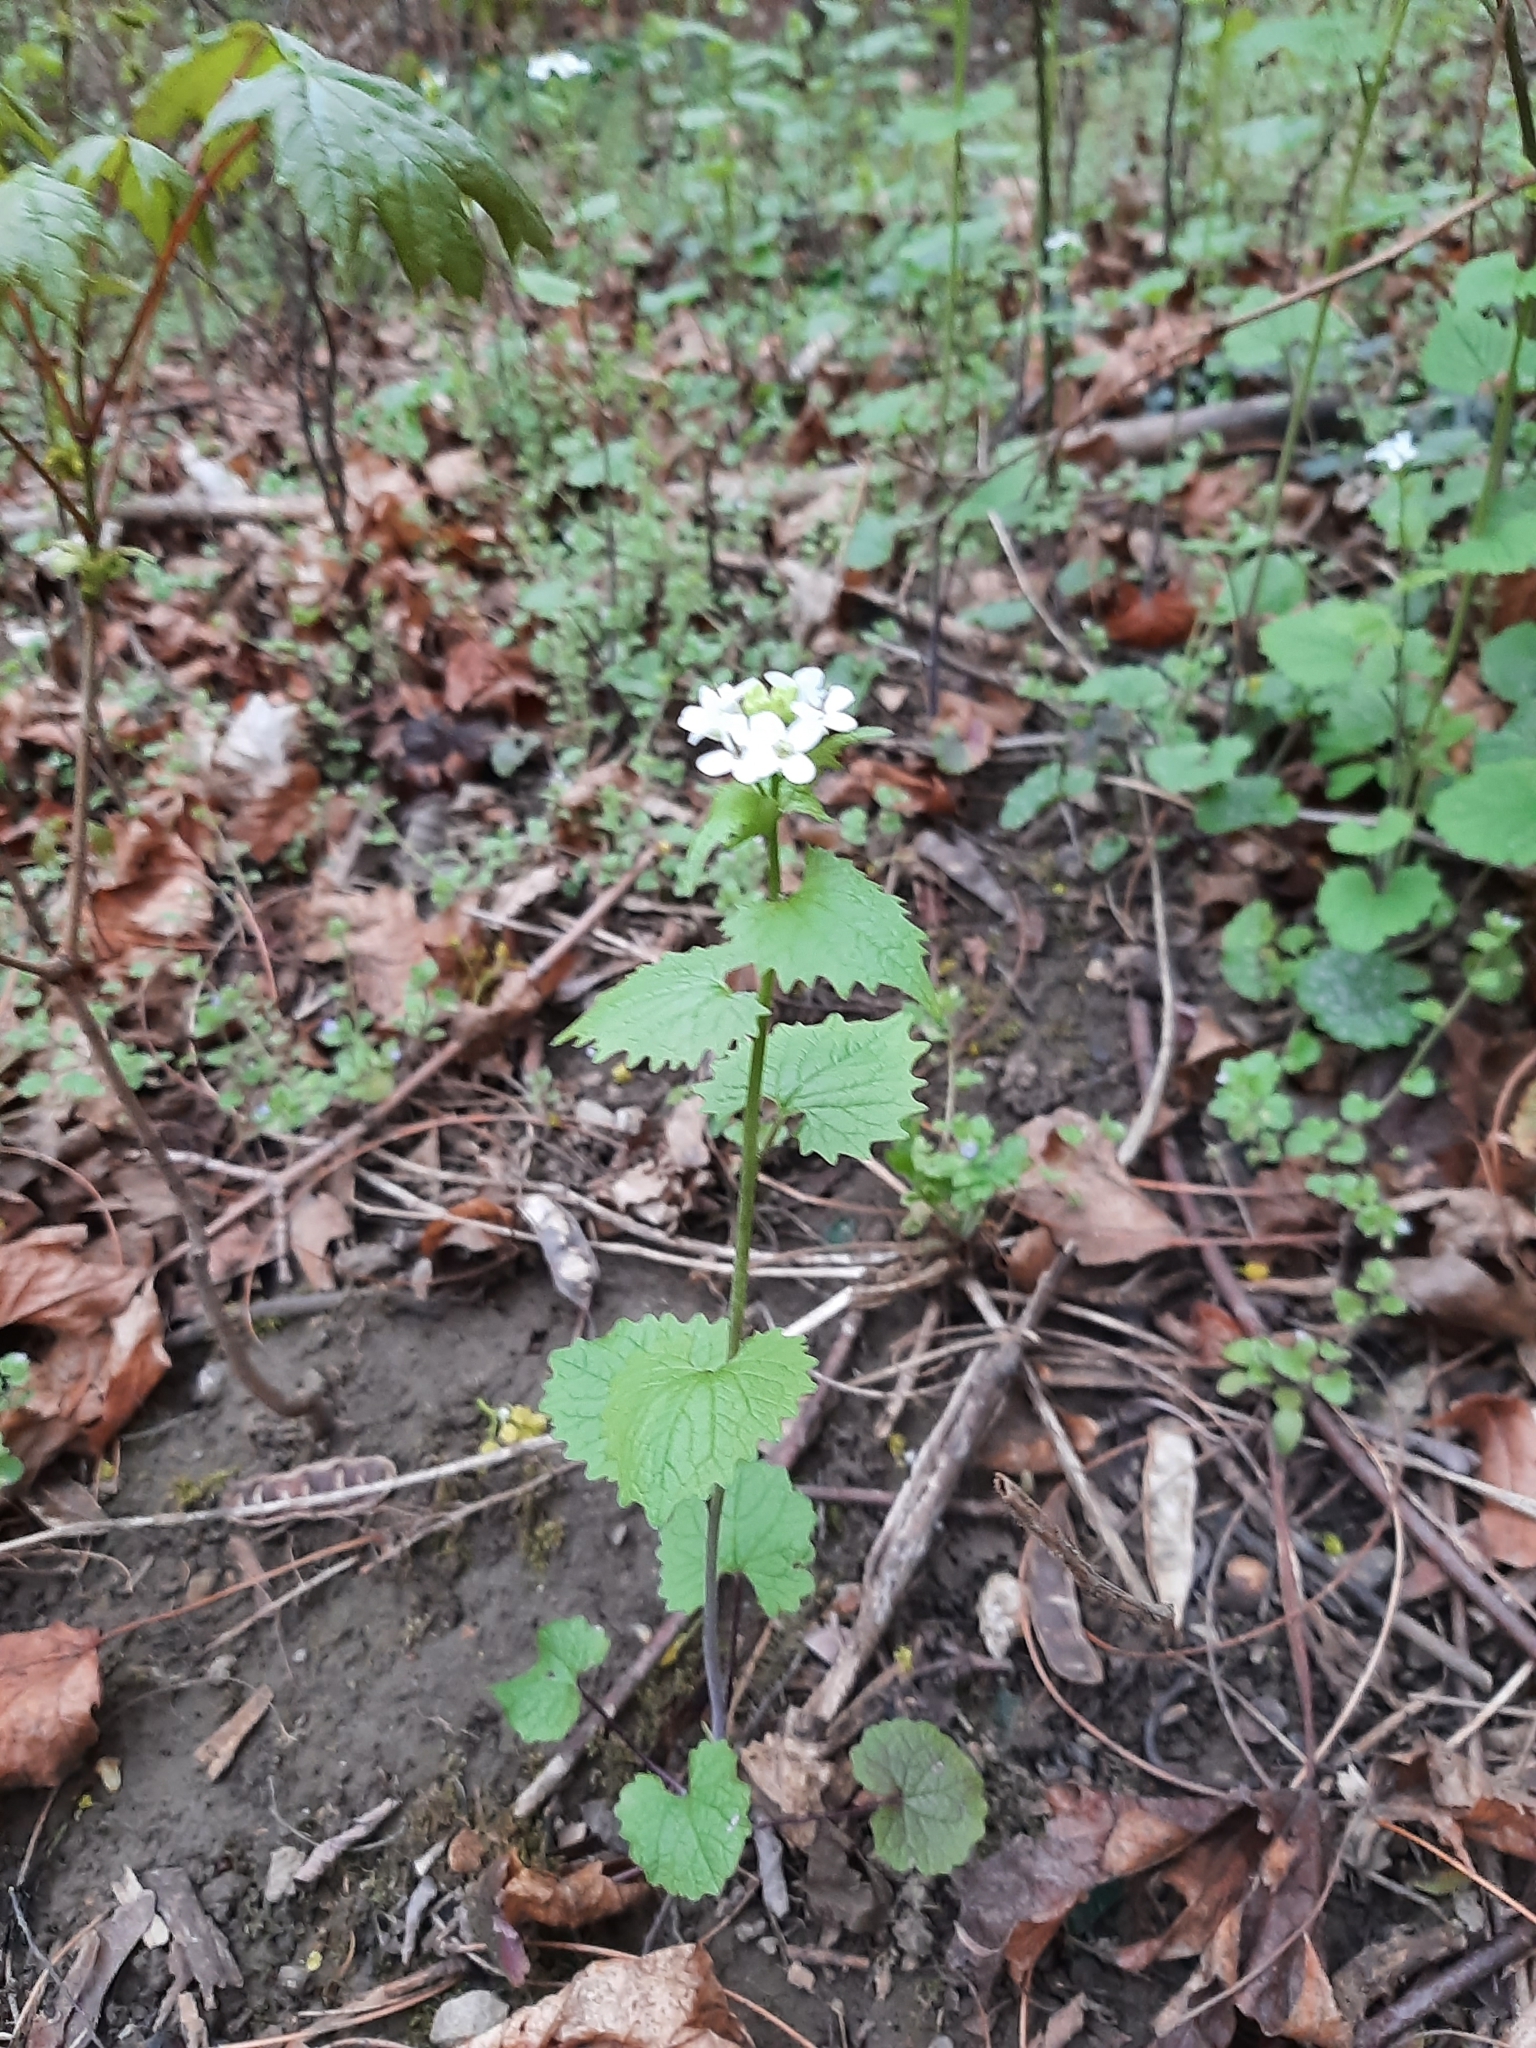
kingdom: Plantae
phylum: Tracheophyta
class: Magnoliopsida
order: Brassicales
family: Brassicaceae
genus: Alliaria
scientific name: Alliaria petiolata
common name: Garlic mustard
